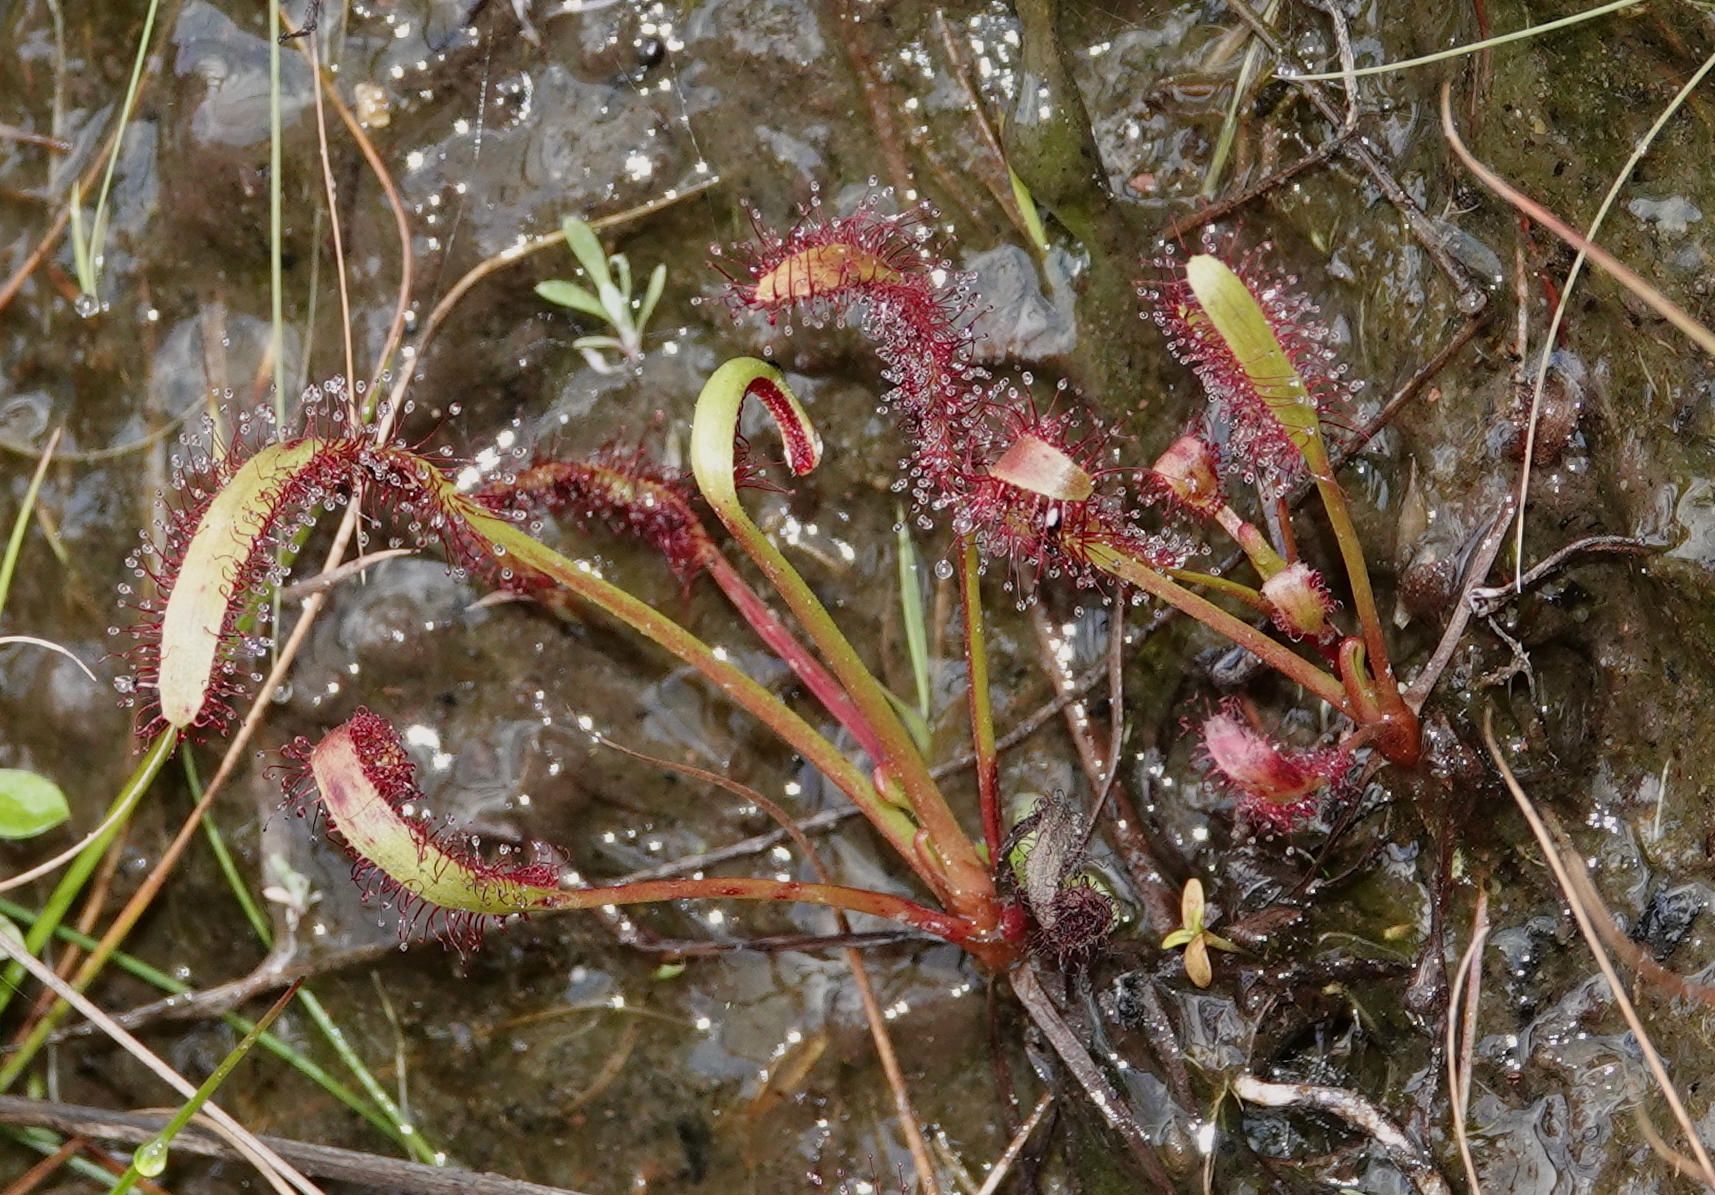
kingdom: Plantae
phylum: Tracheophyta
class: Magnoliopsida
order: Caryophyllales
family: Droseraceae
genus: Drosera
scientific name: Drosera capensis
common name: Cape sundew
